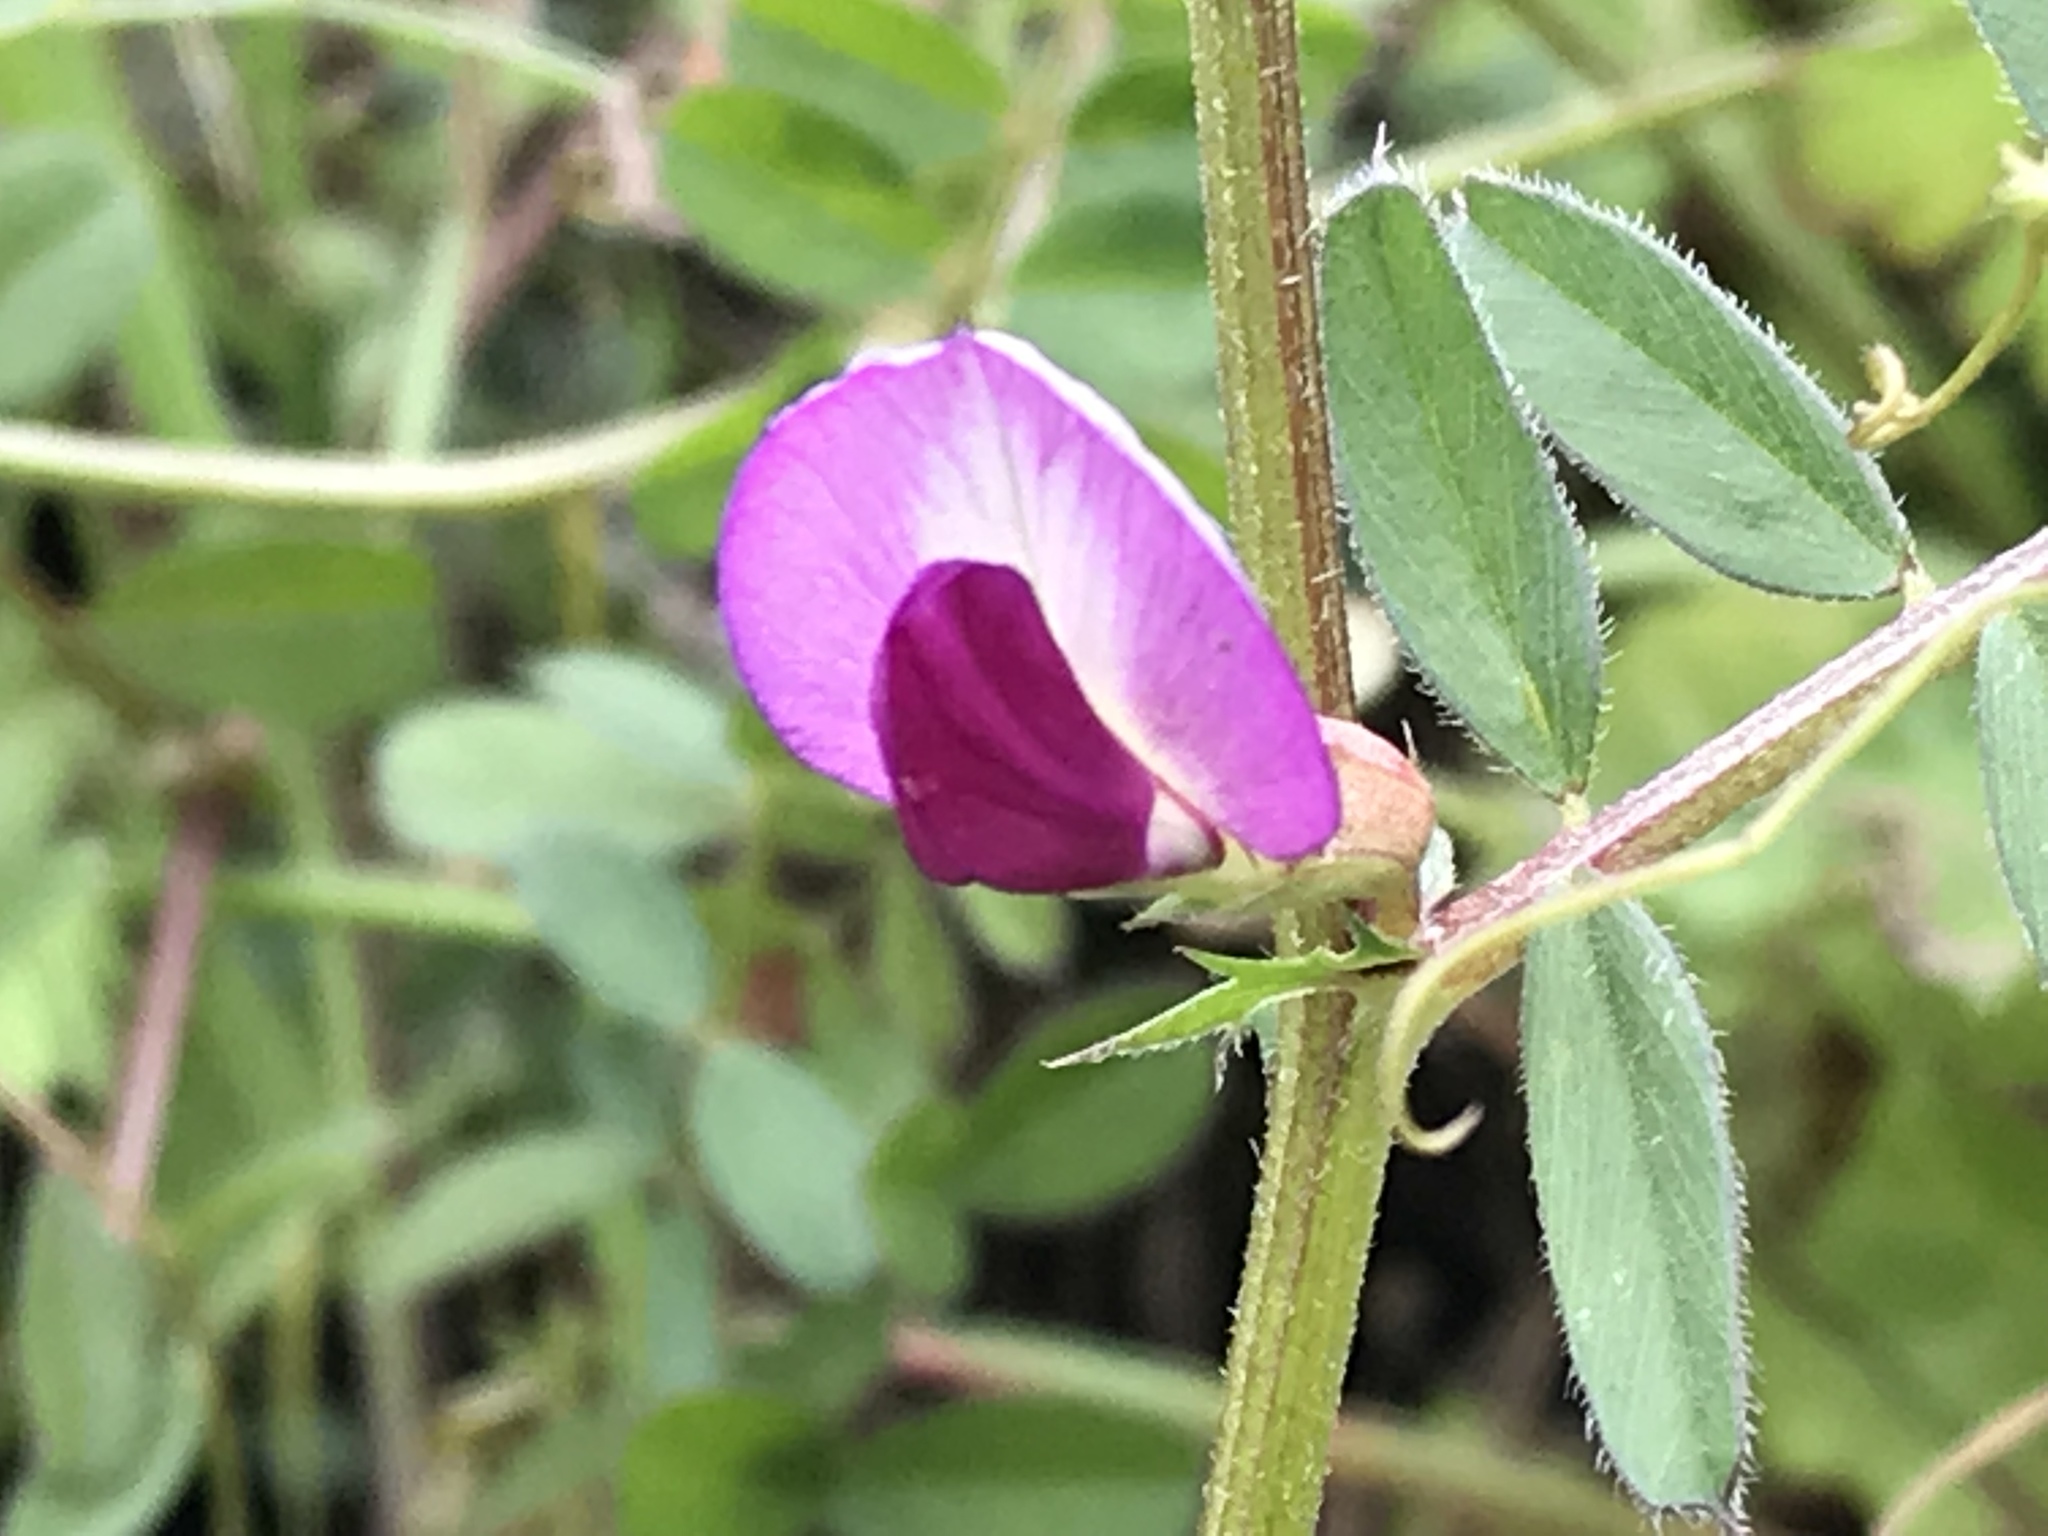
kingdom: Plantae
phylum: Tracheophyta
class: Magnoliopsida
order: Fabales
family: Fabaceae
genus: Vicia
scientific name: Vicia sativa
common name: Garden vetch
